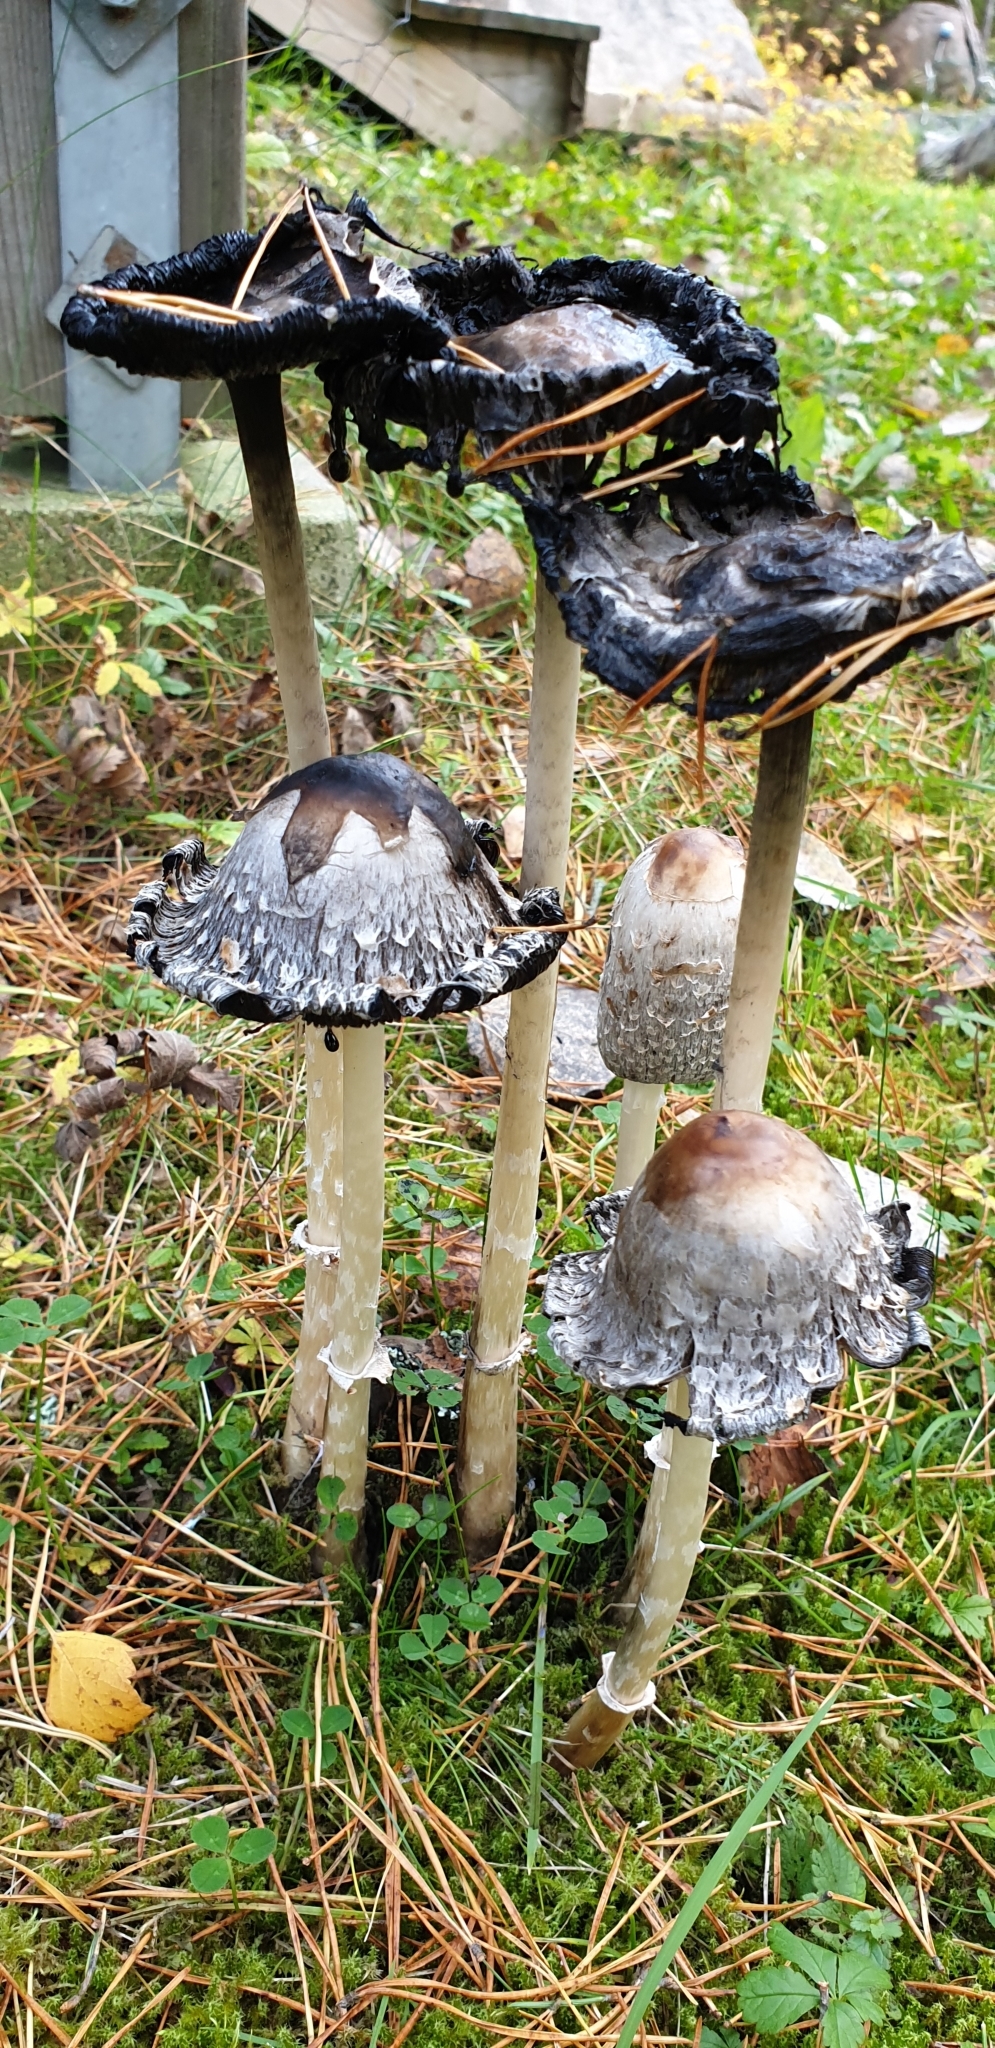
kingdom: Fungi
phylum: Basidiomycota
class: Agaricomycetes
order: Agaricales
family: Agaricaceae
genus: Coprinus
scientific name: Coprinus comatus
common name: Lawyer's wig
